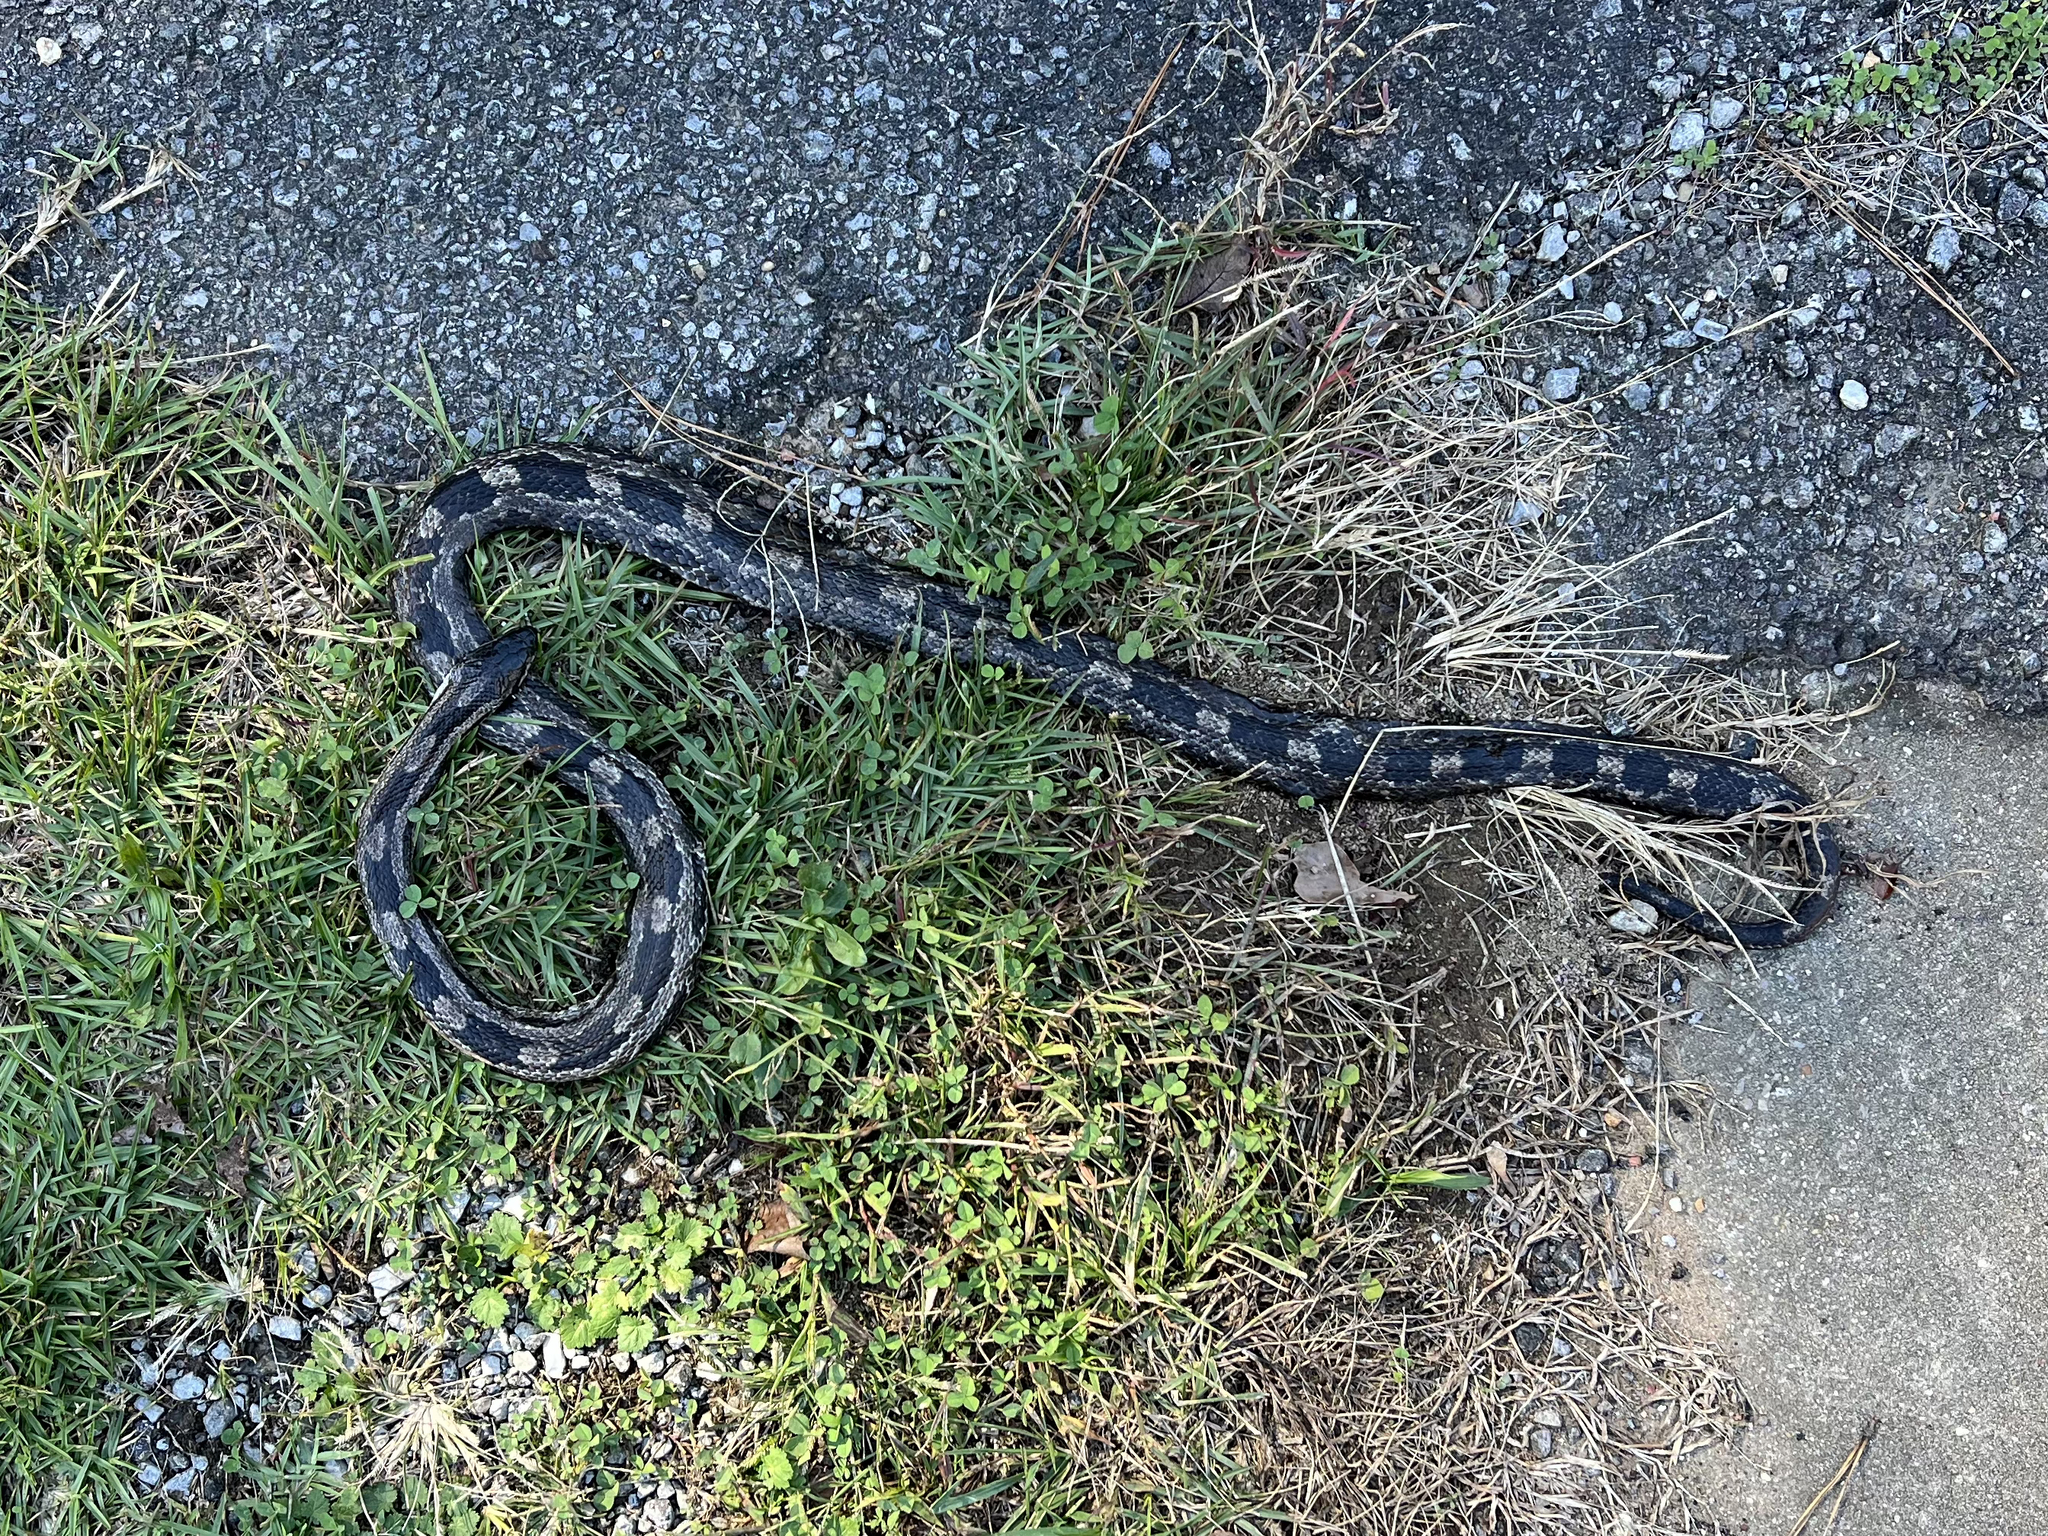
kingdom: Animalia
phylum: Chordata
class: Squamata
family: Colubridae
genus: Pantherophis
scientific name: Pantherophis spiloides
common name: Gray rat snake
